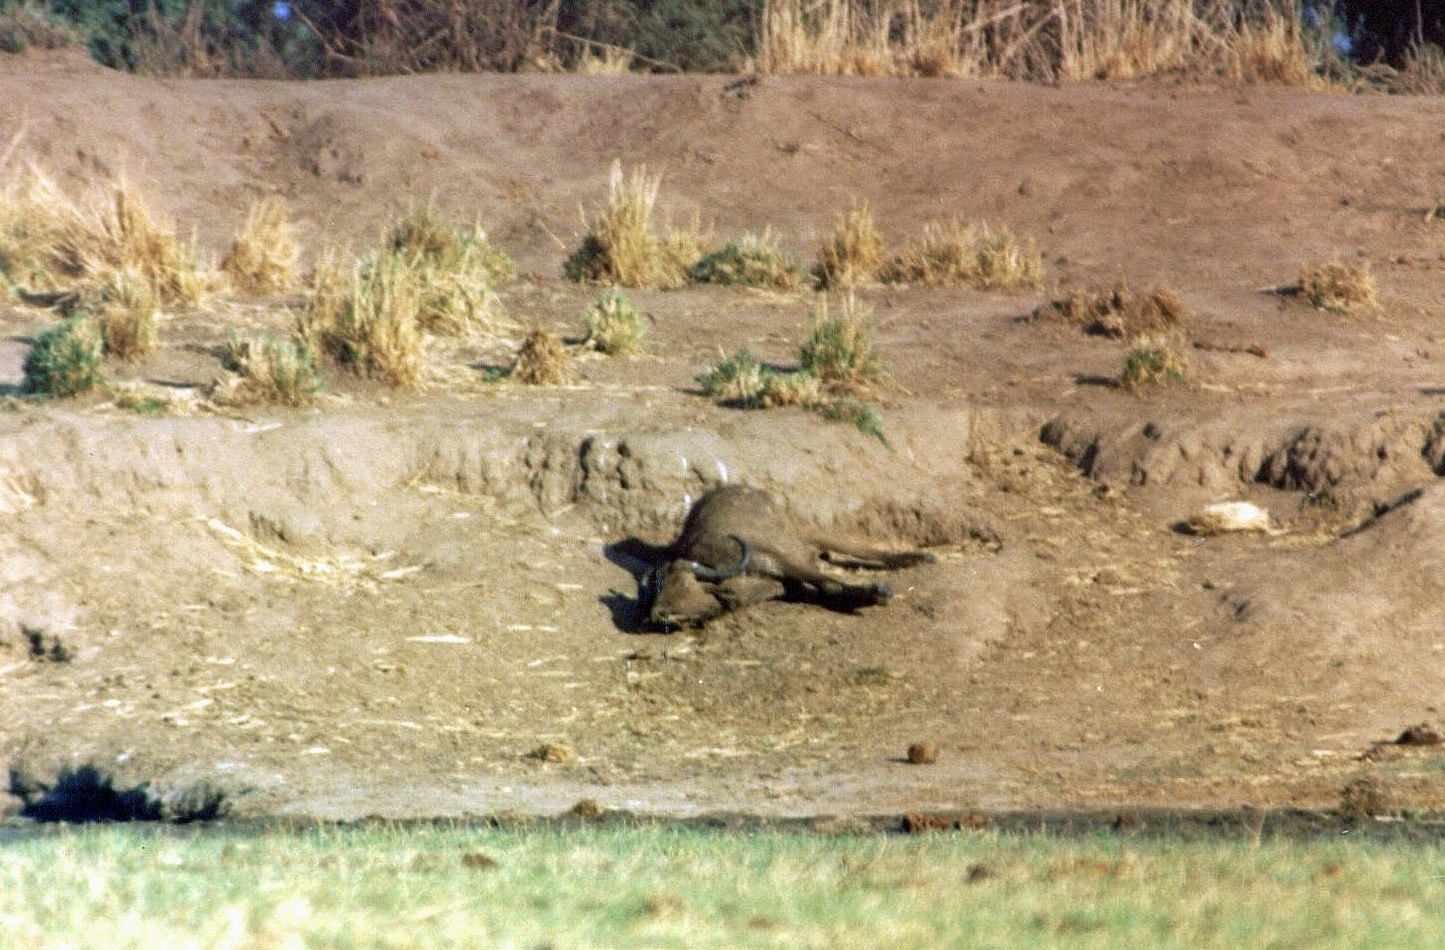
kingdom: Animalia
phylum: Chordata
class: Mammalia
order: Artiodactyla
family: Bovidae
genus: Syncerus
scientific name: Syncerus caffer
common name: African buffalo
